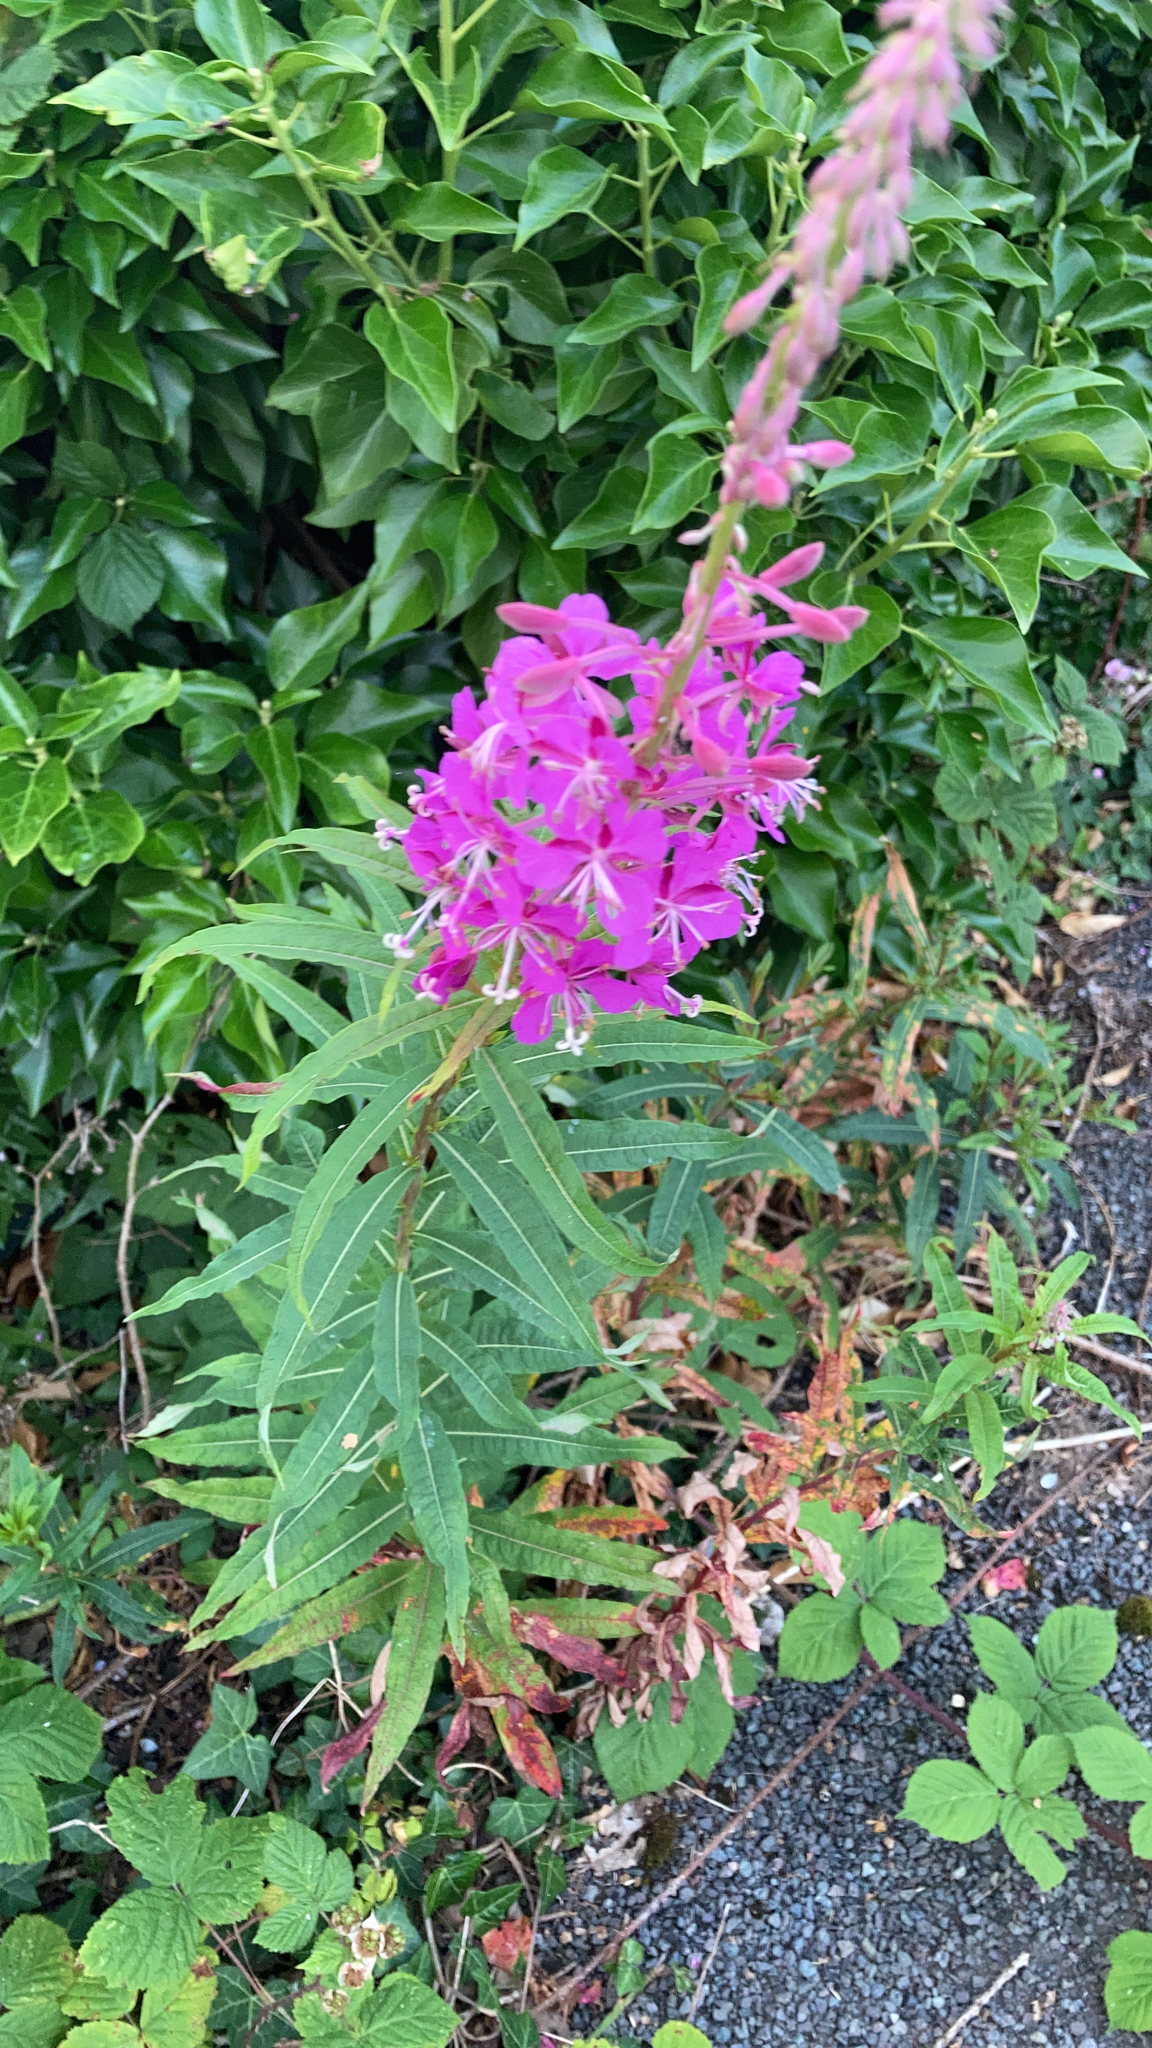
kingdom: Plantae
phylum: Tracheophyta
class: Magnoliopsida
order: Myrtales
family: Onagraceae
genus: Chamaenerion
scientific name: Chamaenerion angustifolium
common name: Fireweed
